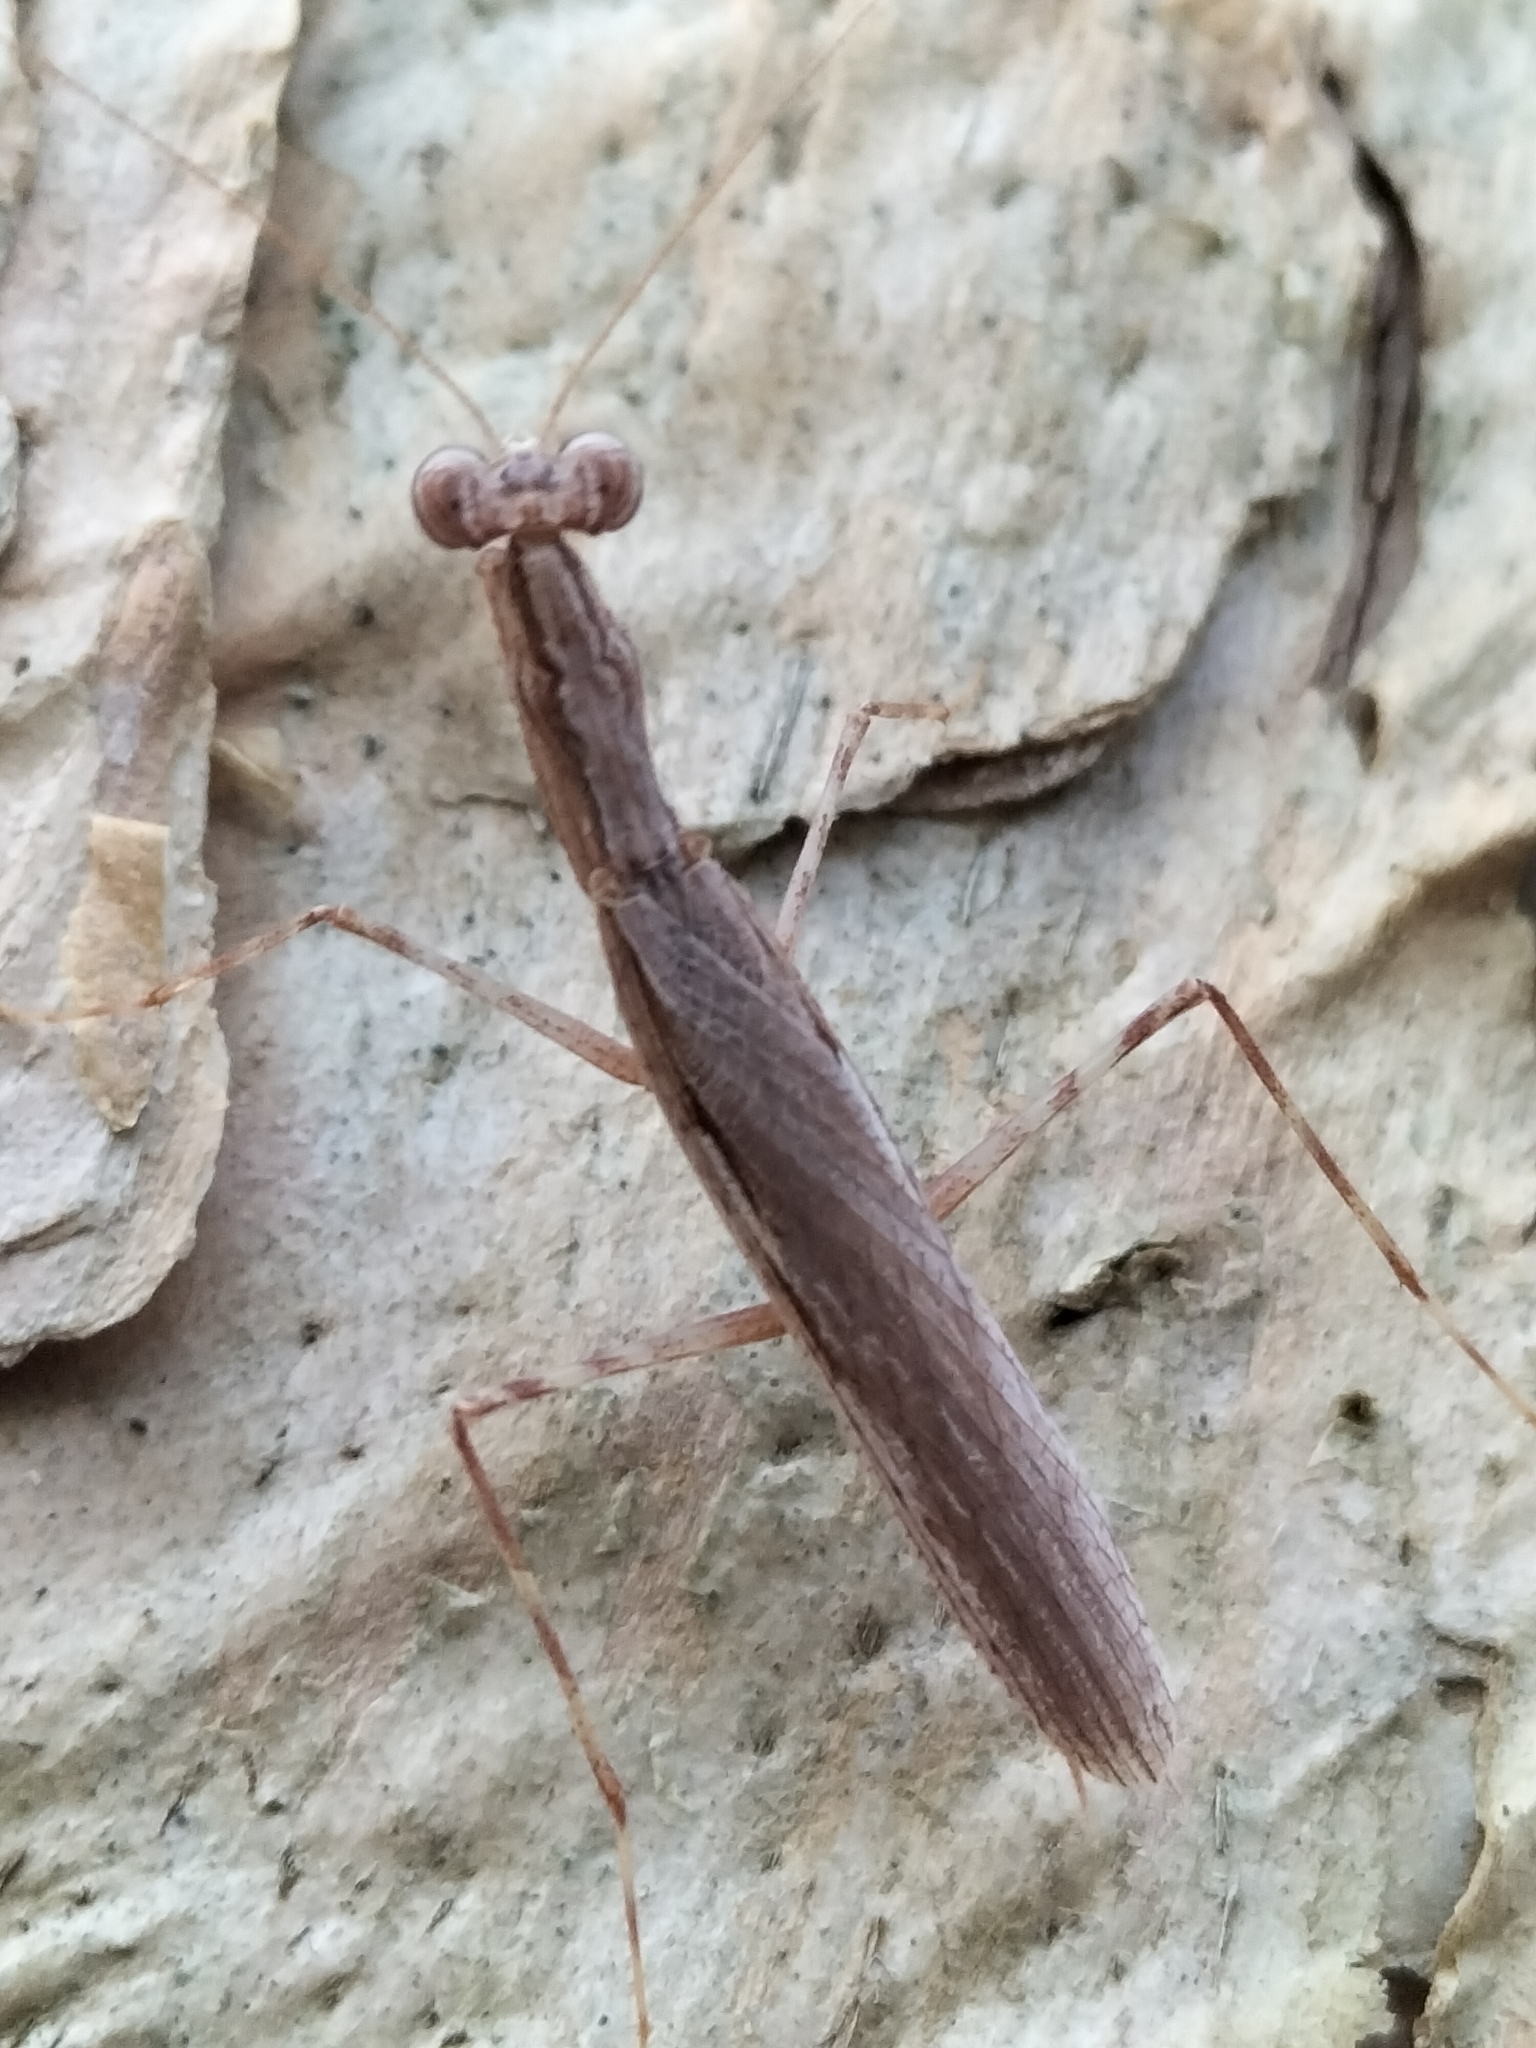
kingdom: Animalia
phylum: Arthropoda
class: Insecta
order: Mantodea
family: Nanomantidae
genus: Ima
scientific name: Ima fusca
